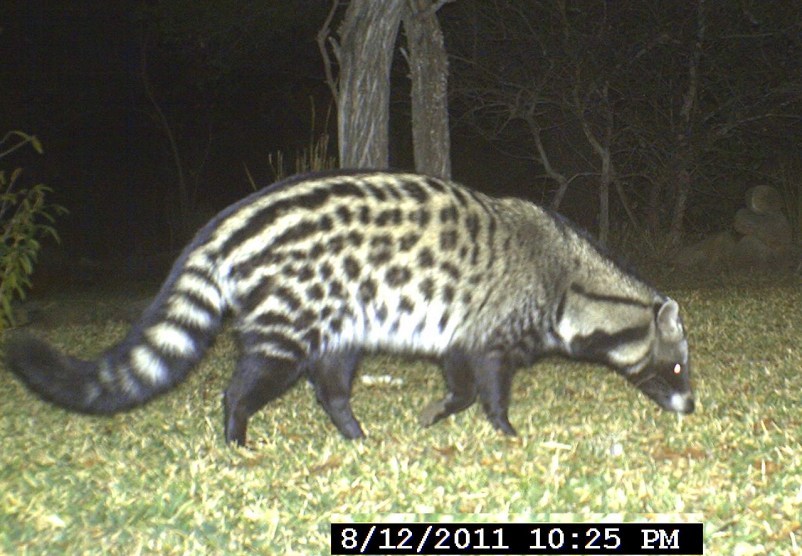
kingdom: Animalia
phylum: Chordata
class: Mammalia
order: Carnivora
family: Viverridae
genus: Civettictis
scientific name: Civettictis civetta
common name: African civet
